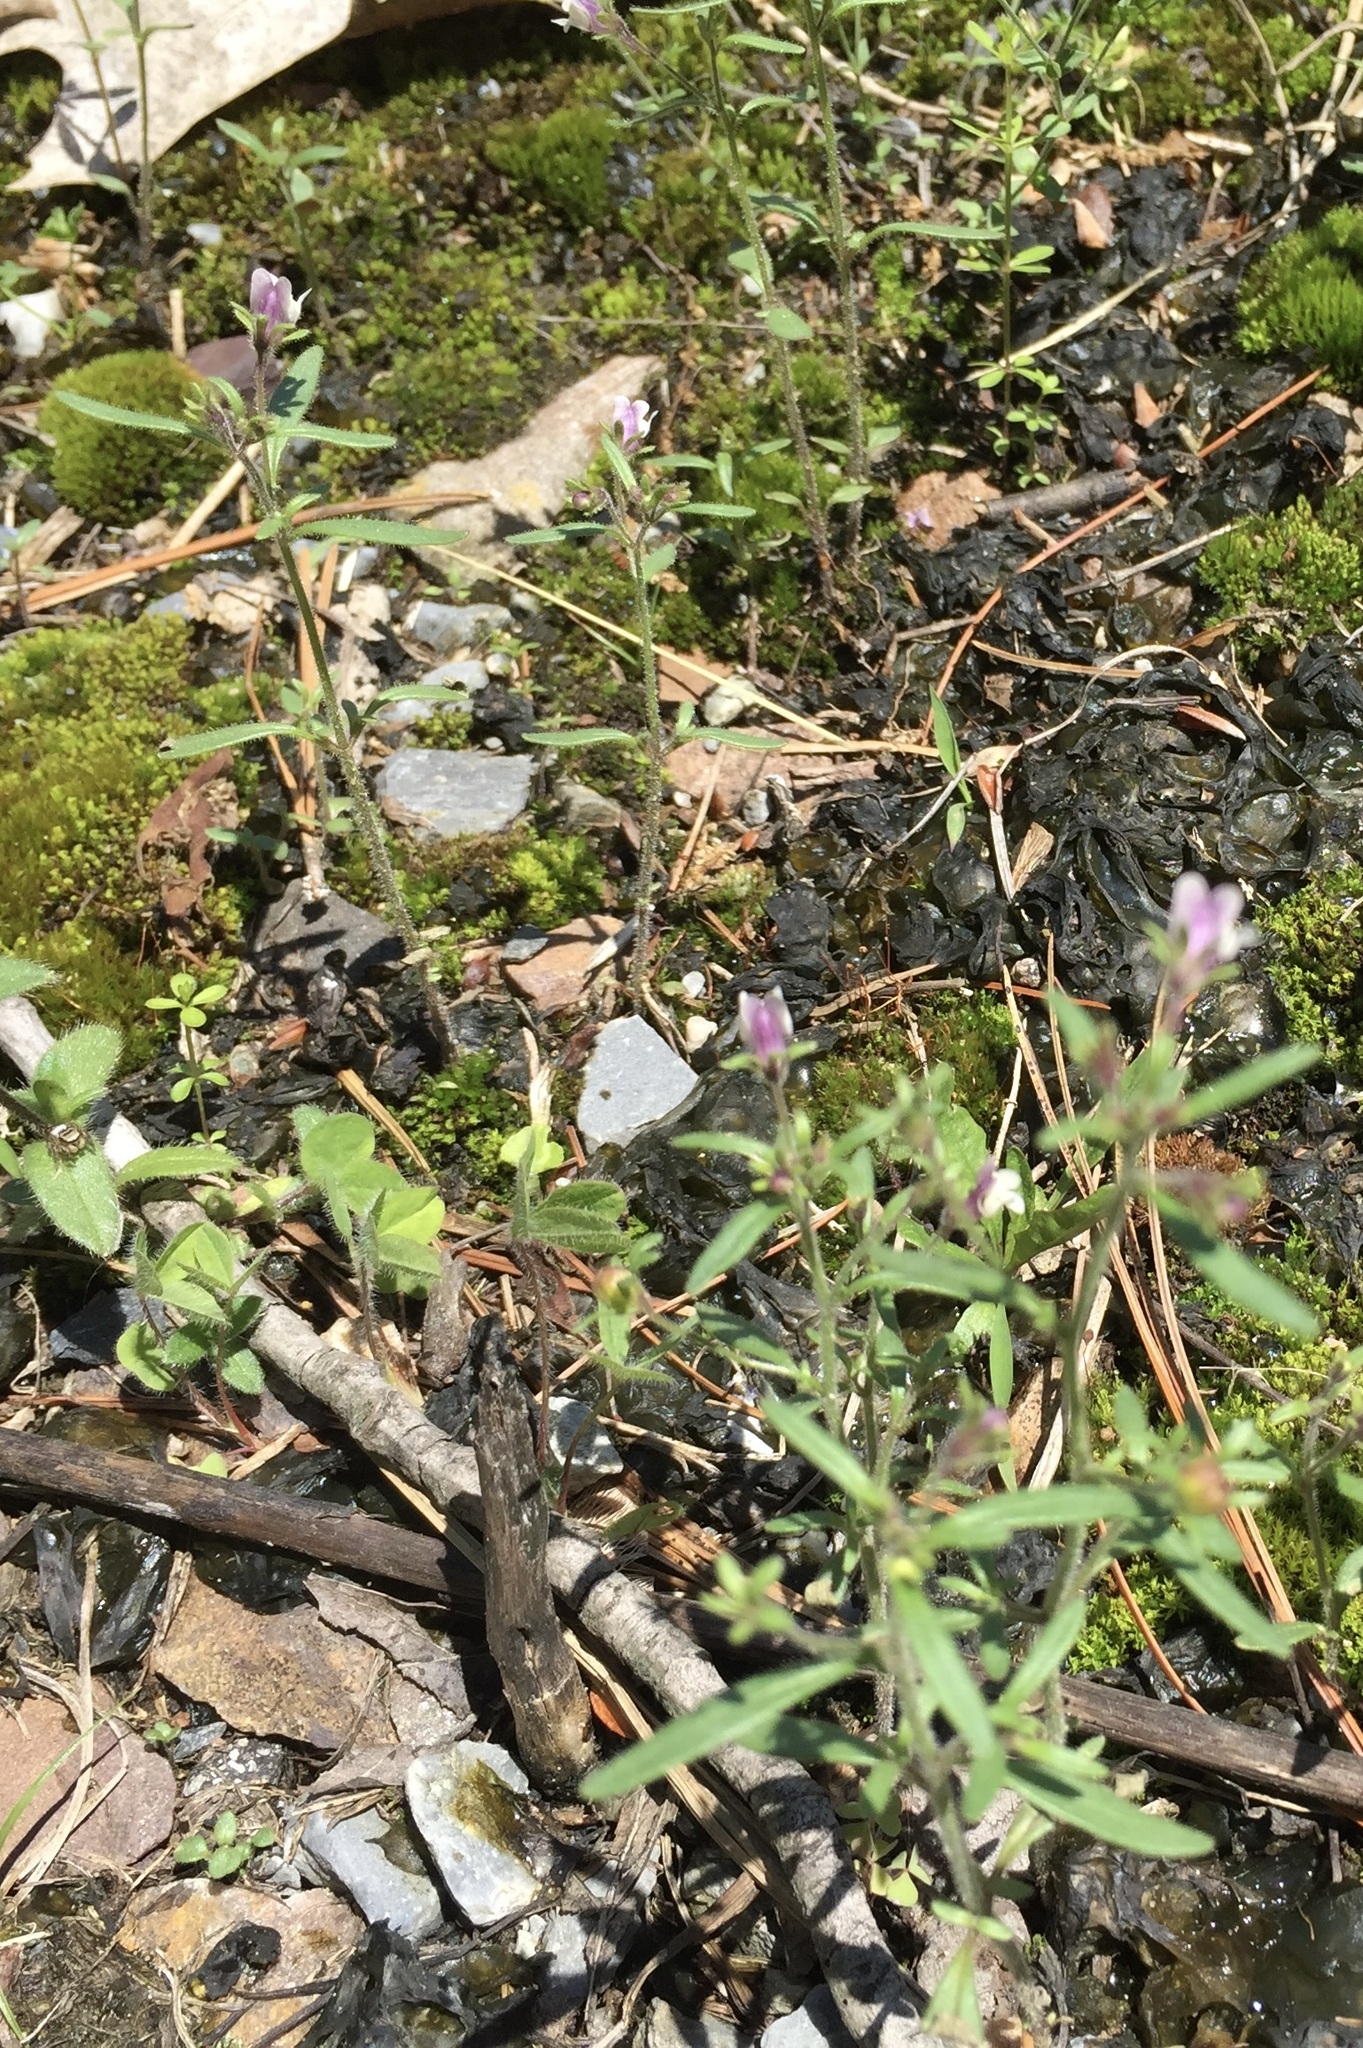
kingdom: Plantae
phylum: Tracheophyta
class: Magnoliopsida
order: Lamiales
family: Plantaginaceae
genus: Chaenorhinum
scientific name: Chaenorhinum minus
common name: Dwarf snapdragon
